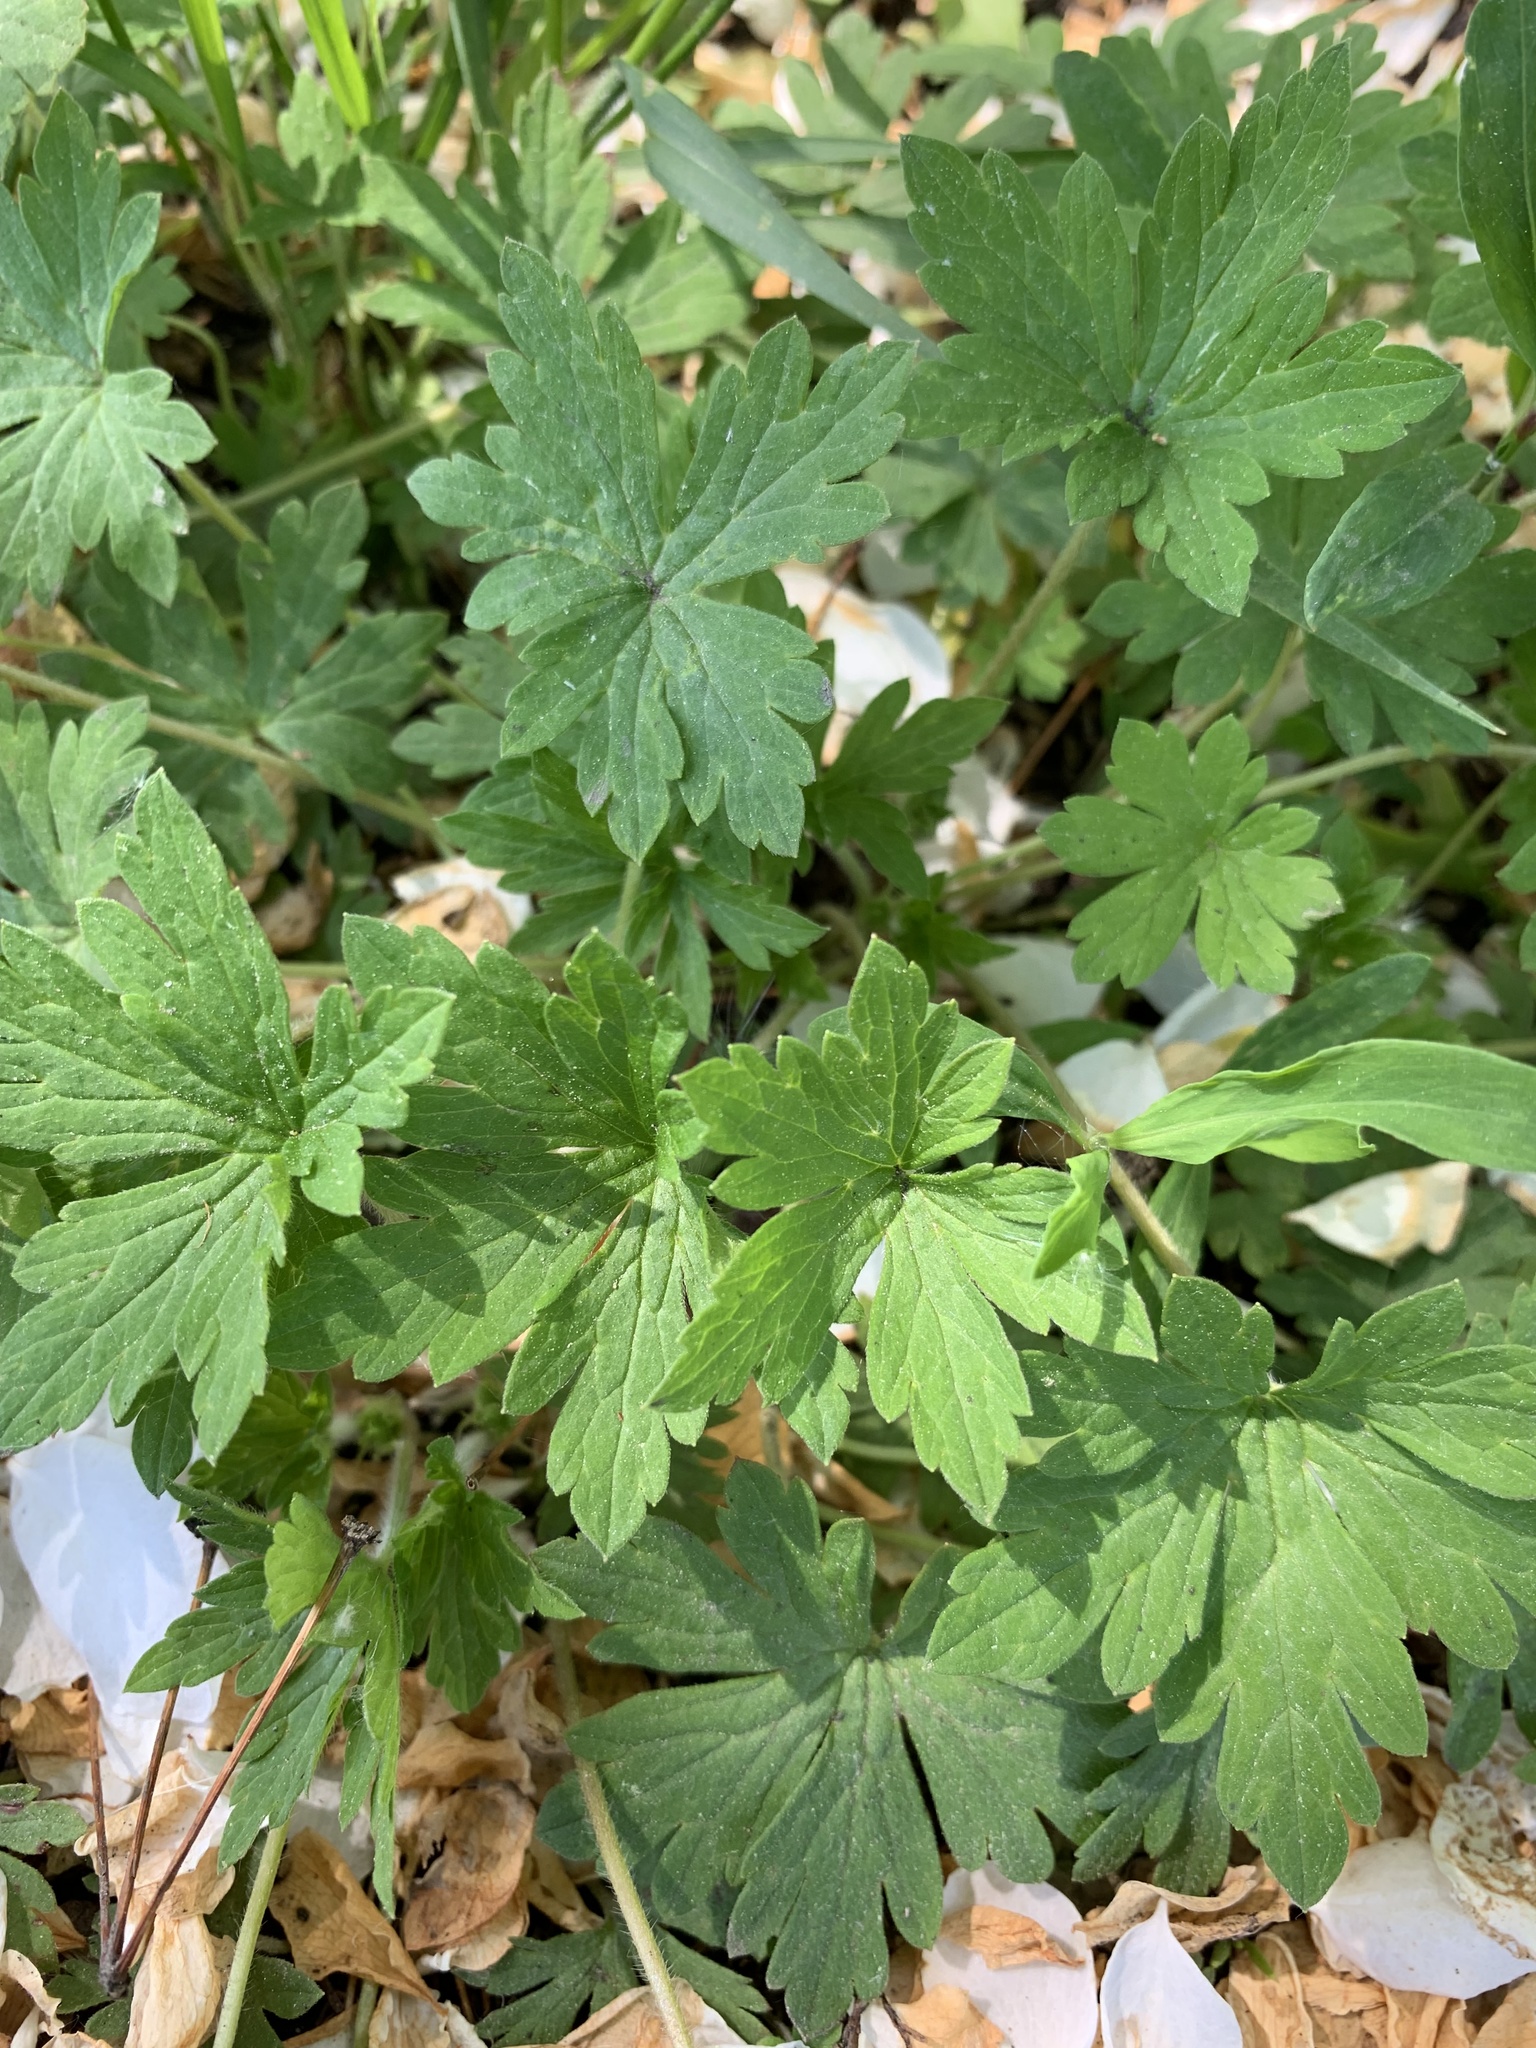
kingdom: Plantae
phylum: Tracheophyta
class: Magnoliopsida
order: Geraniales
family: Geraniaceae
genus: Geranium
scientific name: Geranium sibiricum
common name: Siberian crane's-bill
